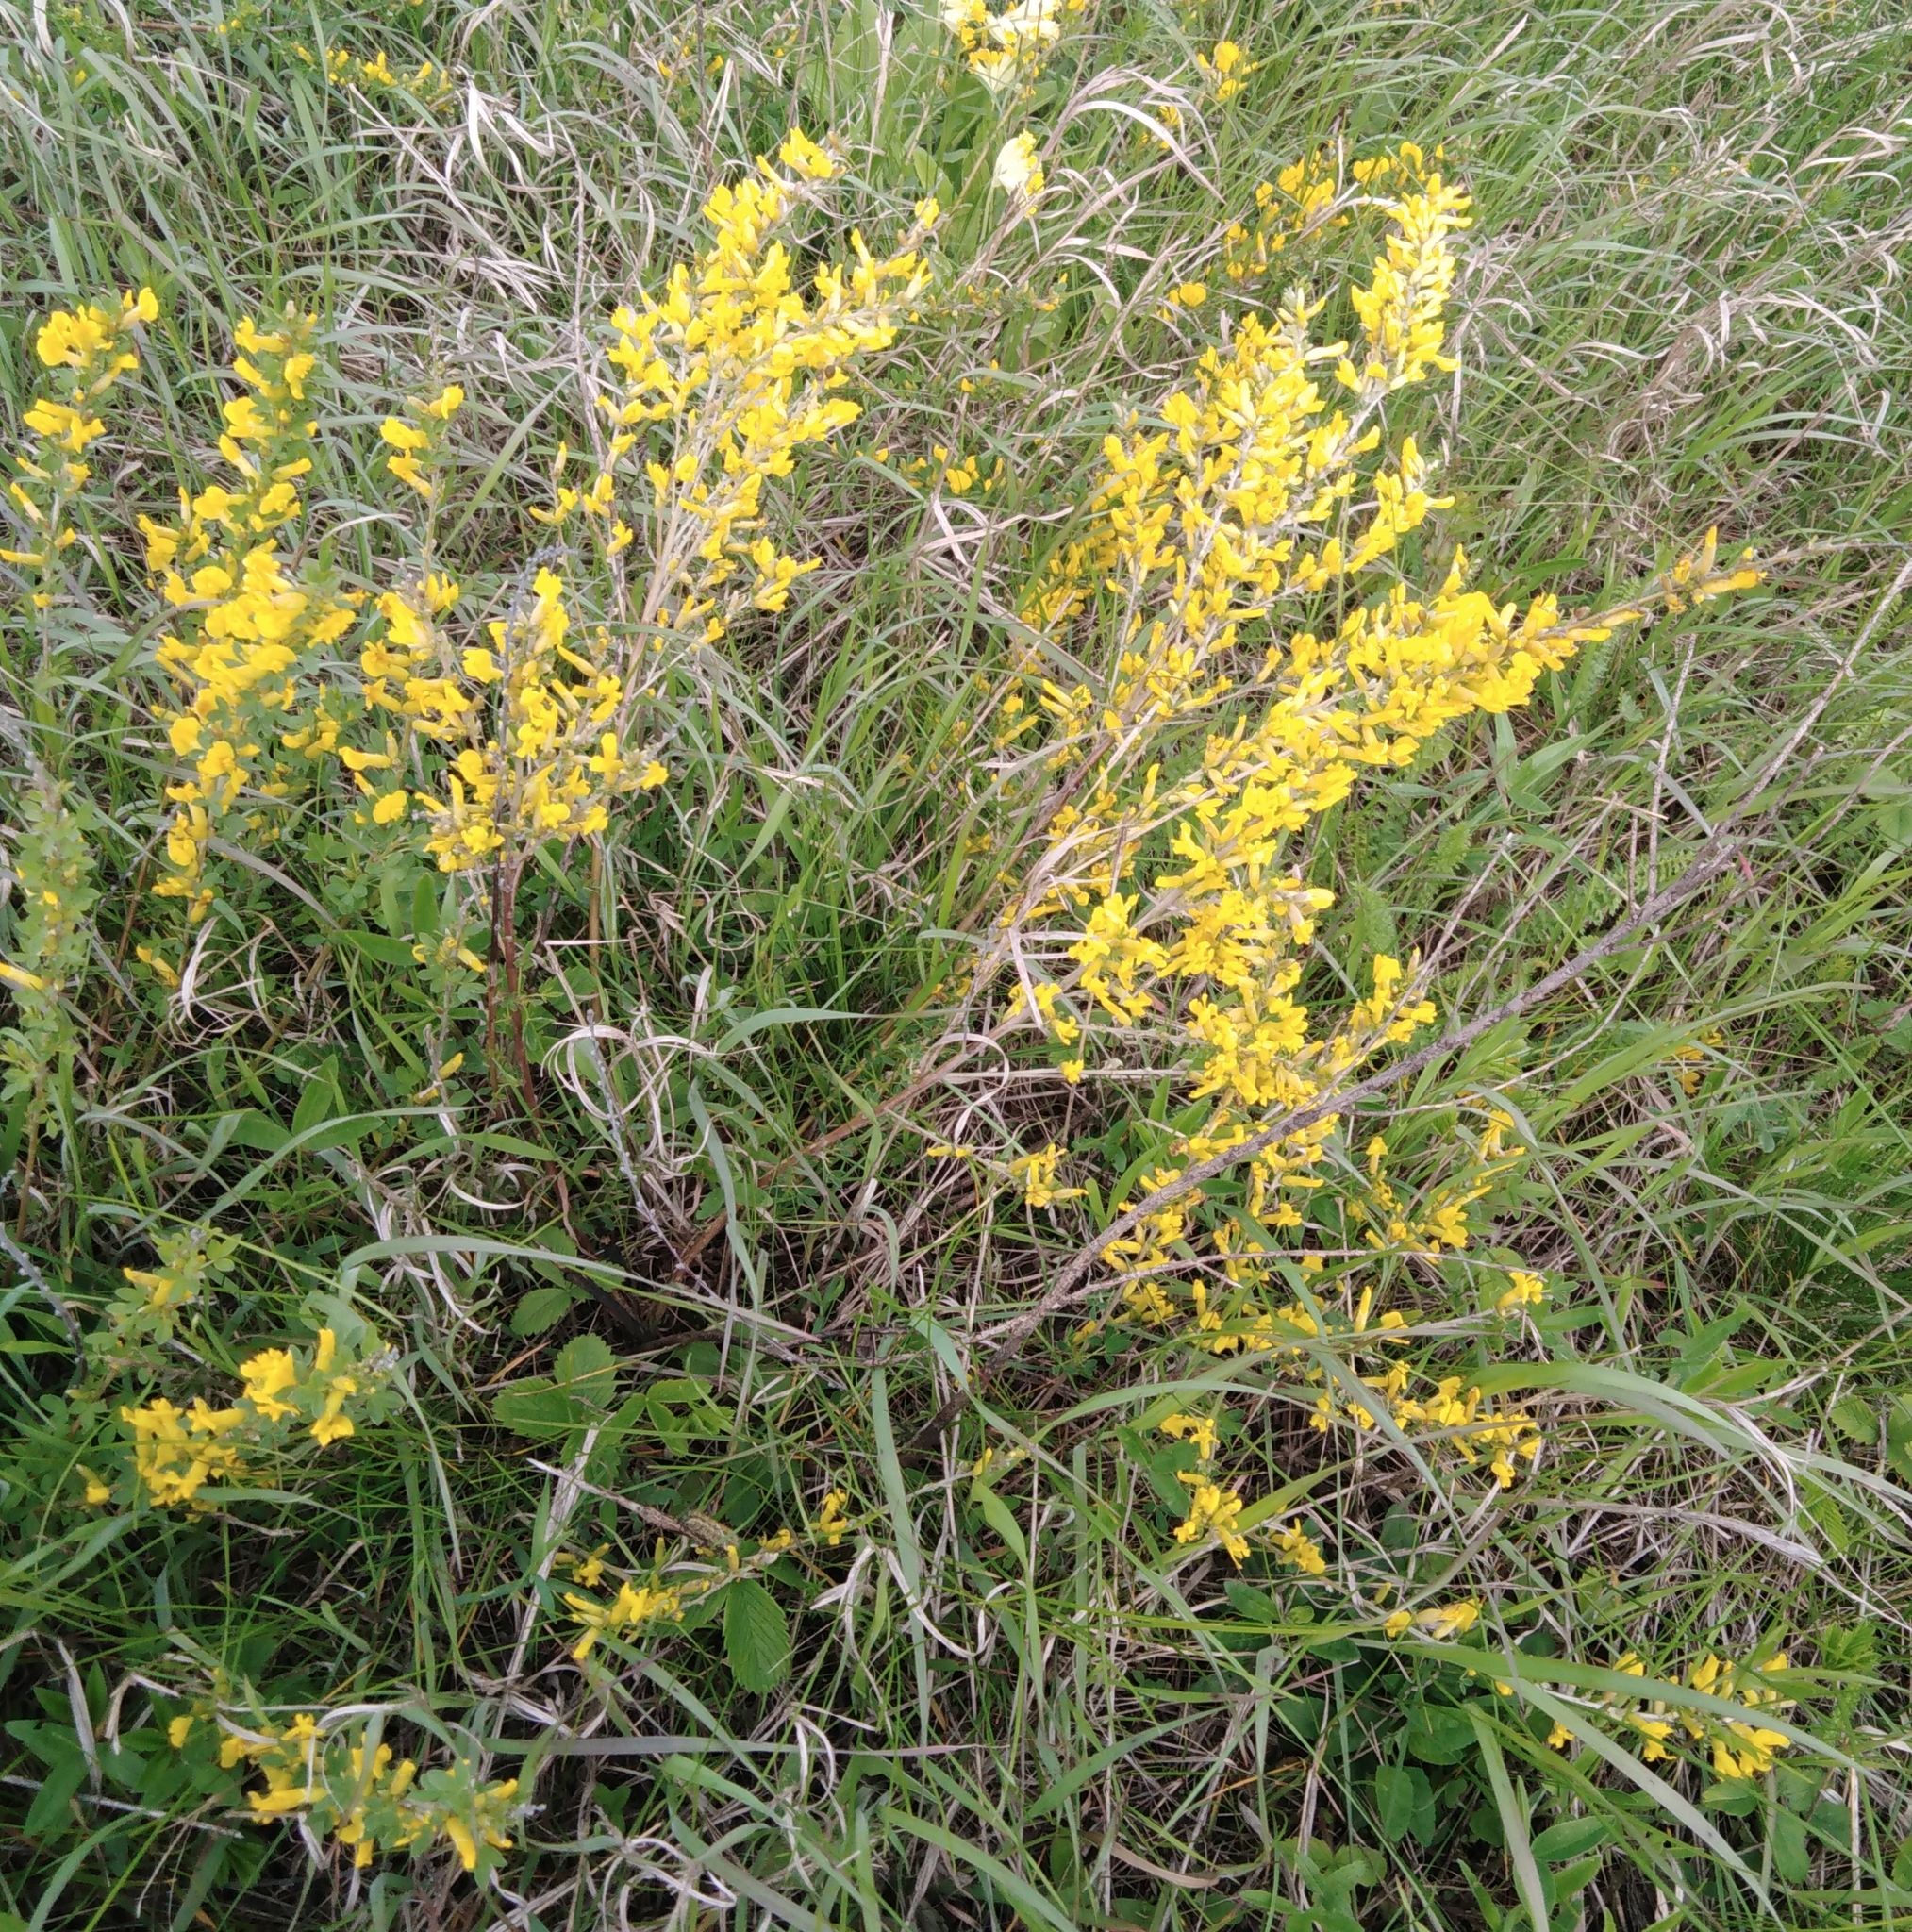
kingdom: Plantae
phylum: Tracheophyta
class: Magnoliopsida
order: Fabales
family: Fabaceae
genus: Chamaecytisus
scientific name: Chamaecytisus ruthenicus
